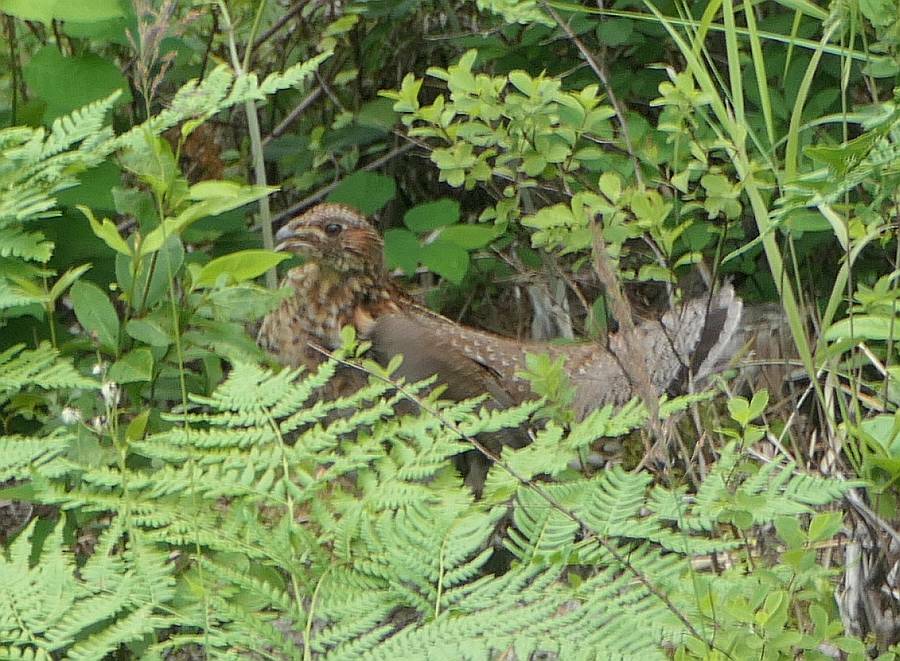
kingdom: Animalia
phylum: Chordata
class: Aves
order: Galliformes
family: Phasianidae
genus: Bonasa
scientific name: Bonasa umbellus
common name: Ruffed grouse
